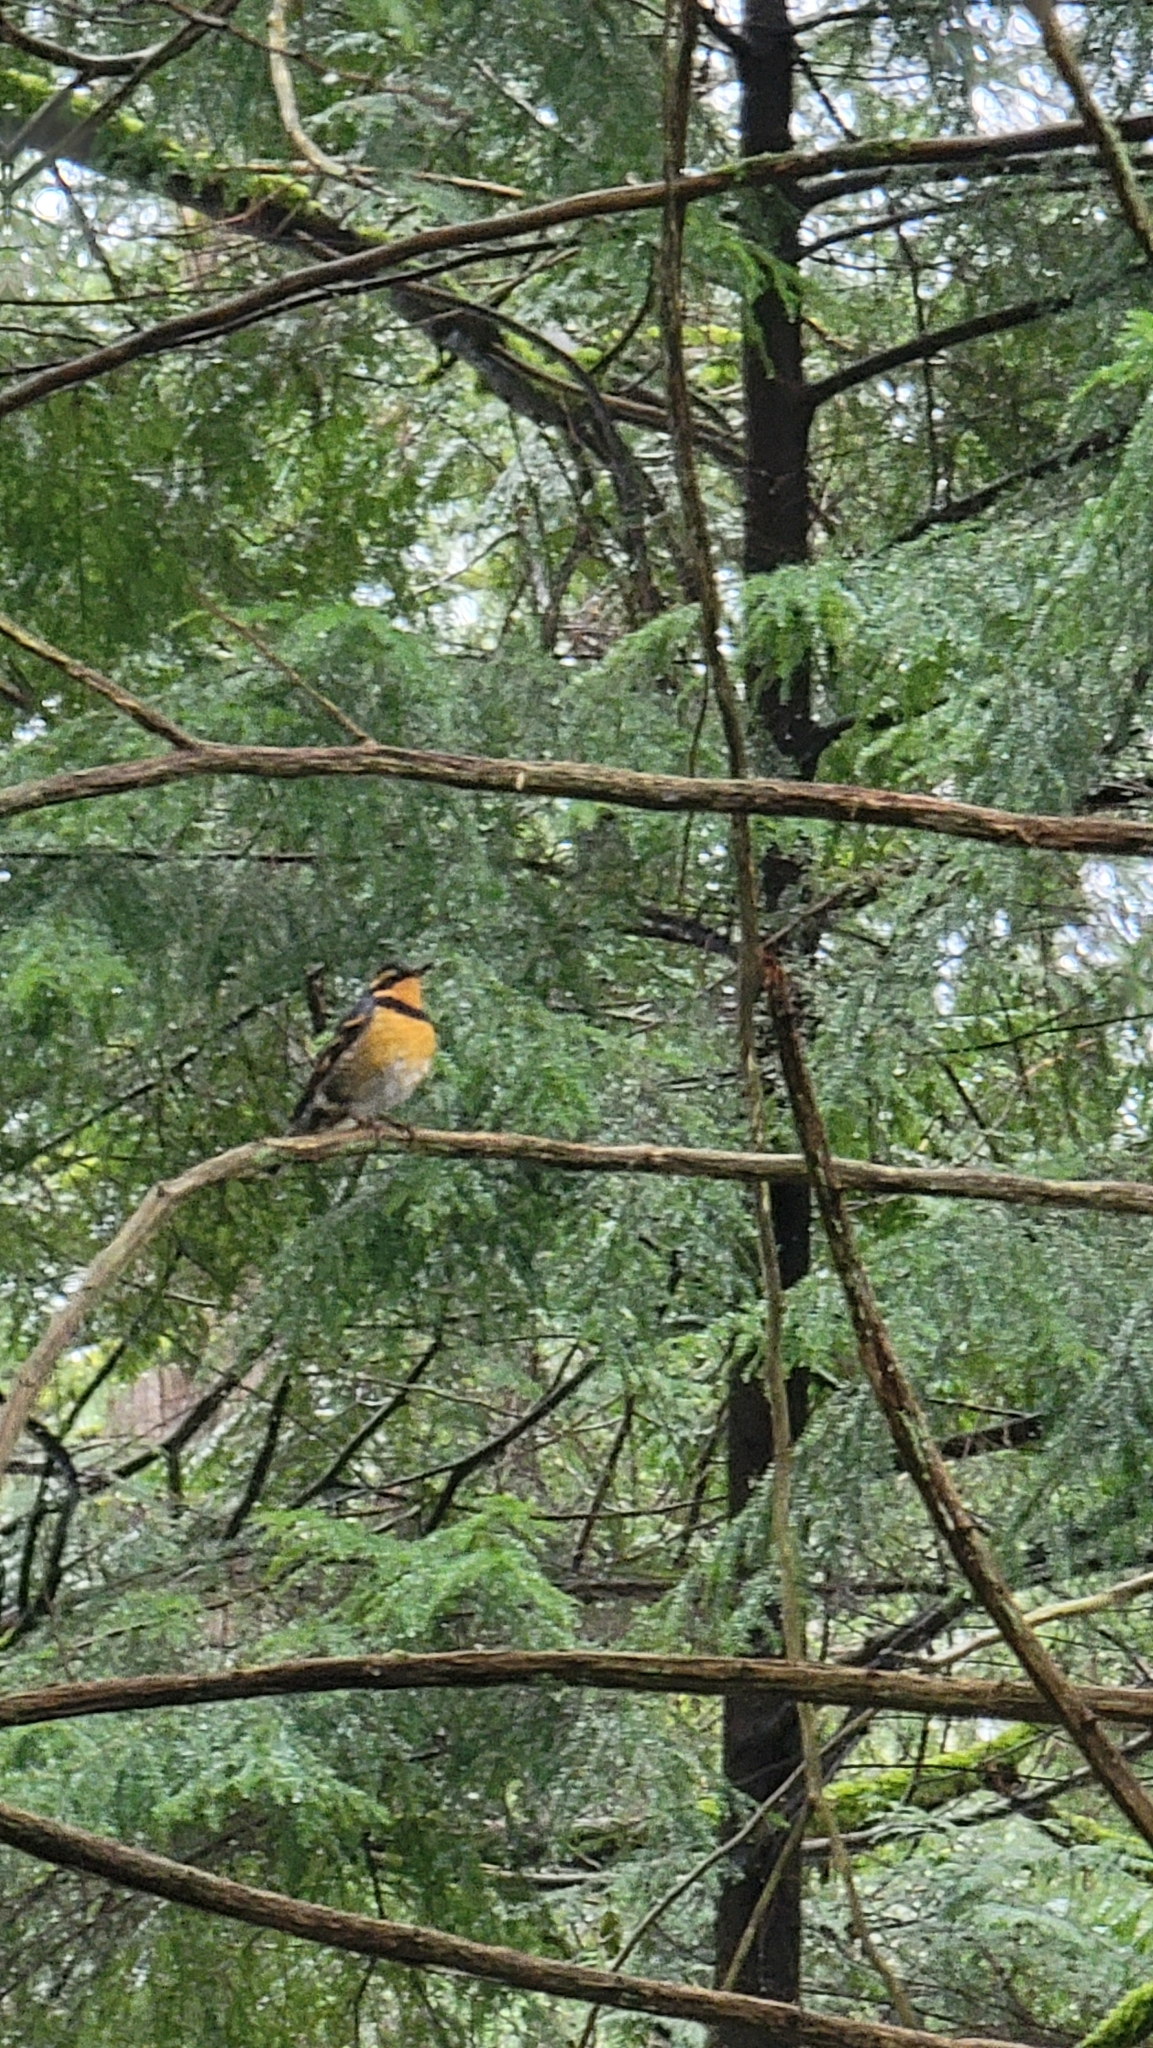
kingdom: Animalia
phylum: Chordata
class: Aves
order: Passeriformes
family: Turdidae
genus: Ixoreus
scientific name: Ixoreus naevius
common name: Varied thrush
